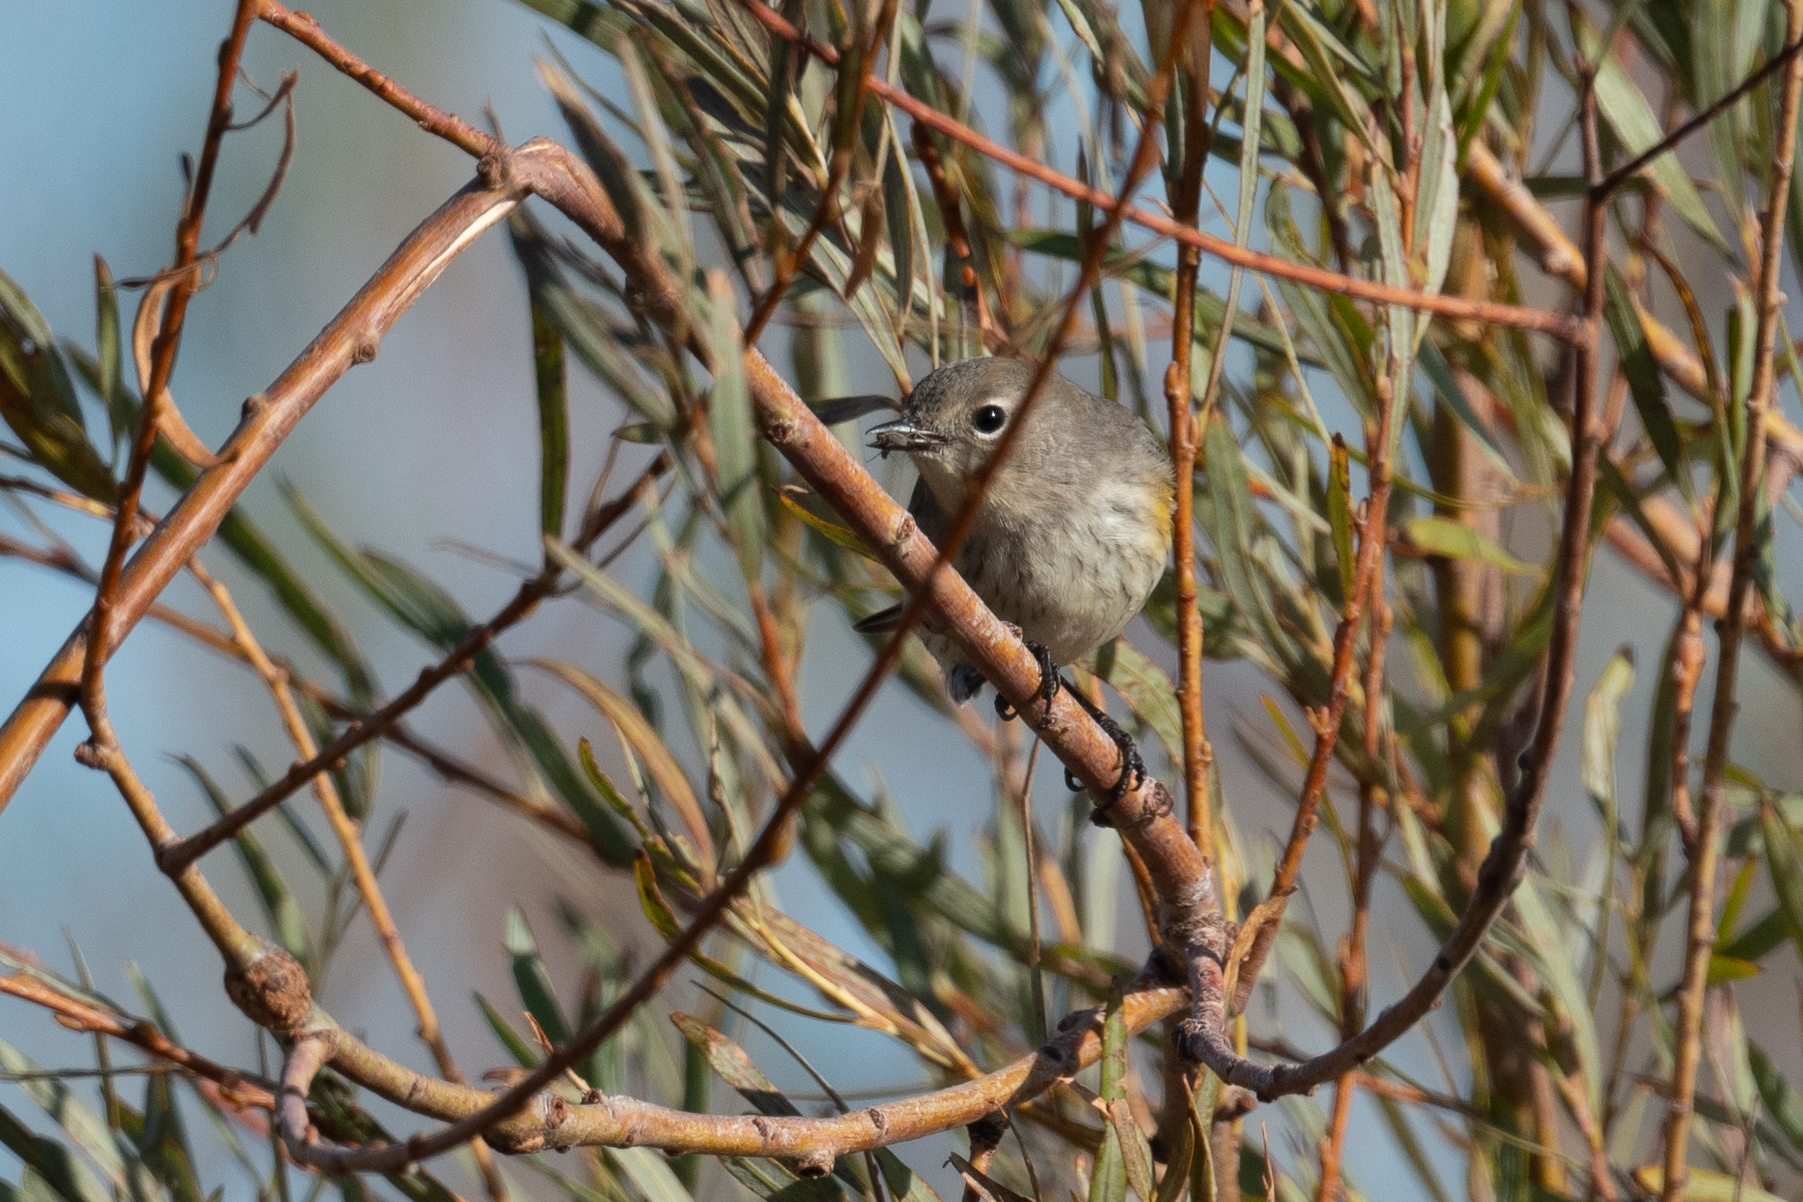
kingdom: Animalia
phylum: Chordata
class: Aves
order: Passeriformes
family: Parulidae
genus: Setophaga
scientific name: Setophaga coronata
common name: Myrtle warbler
